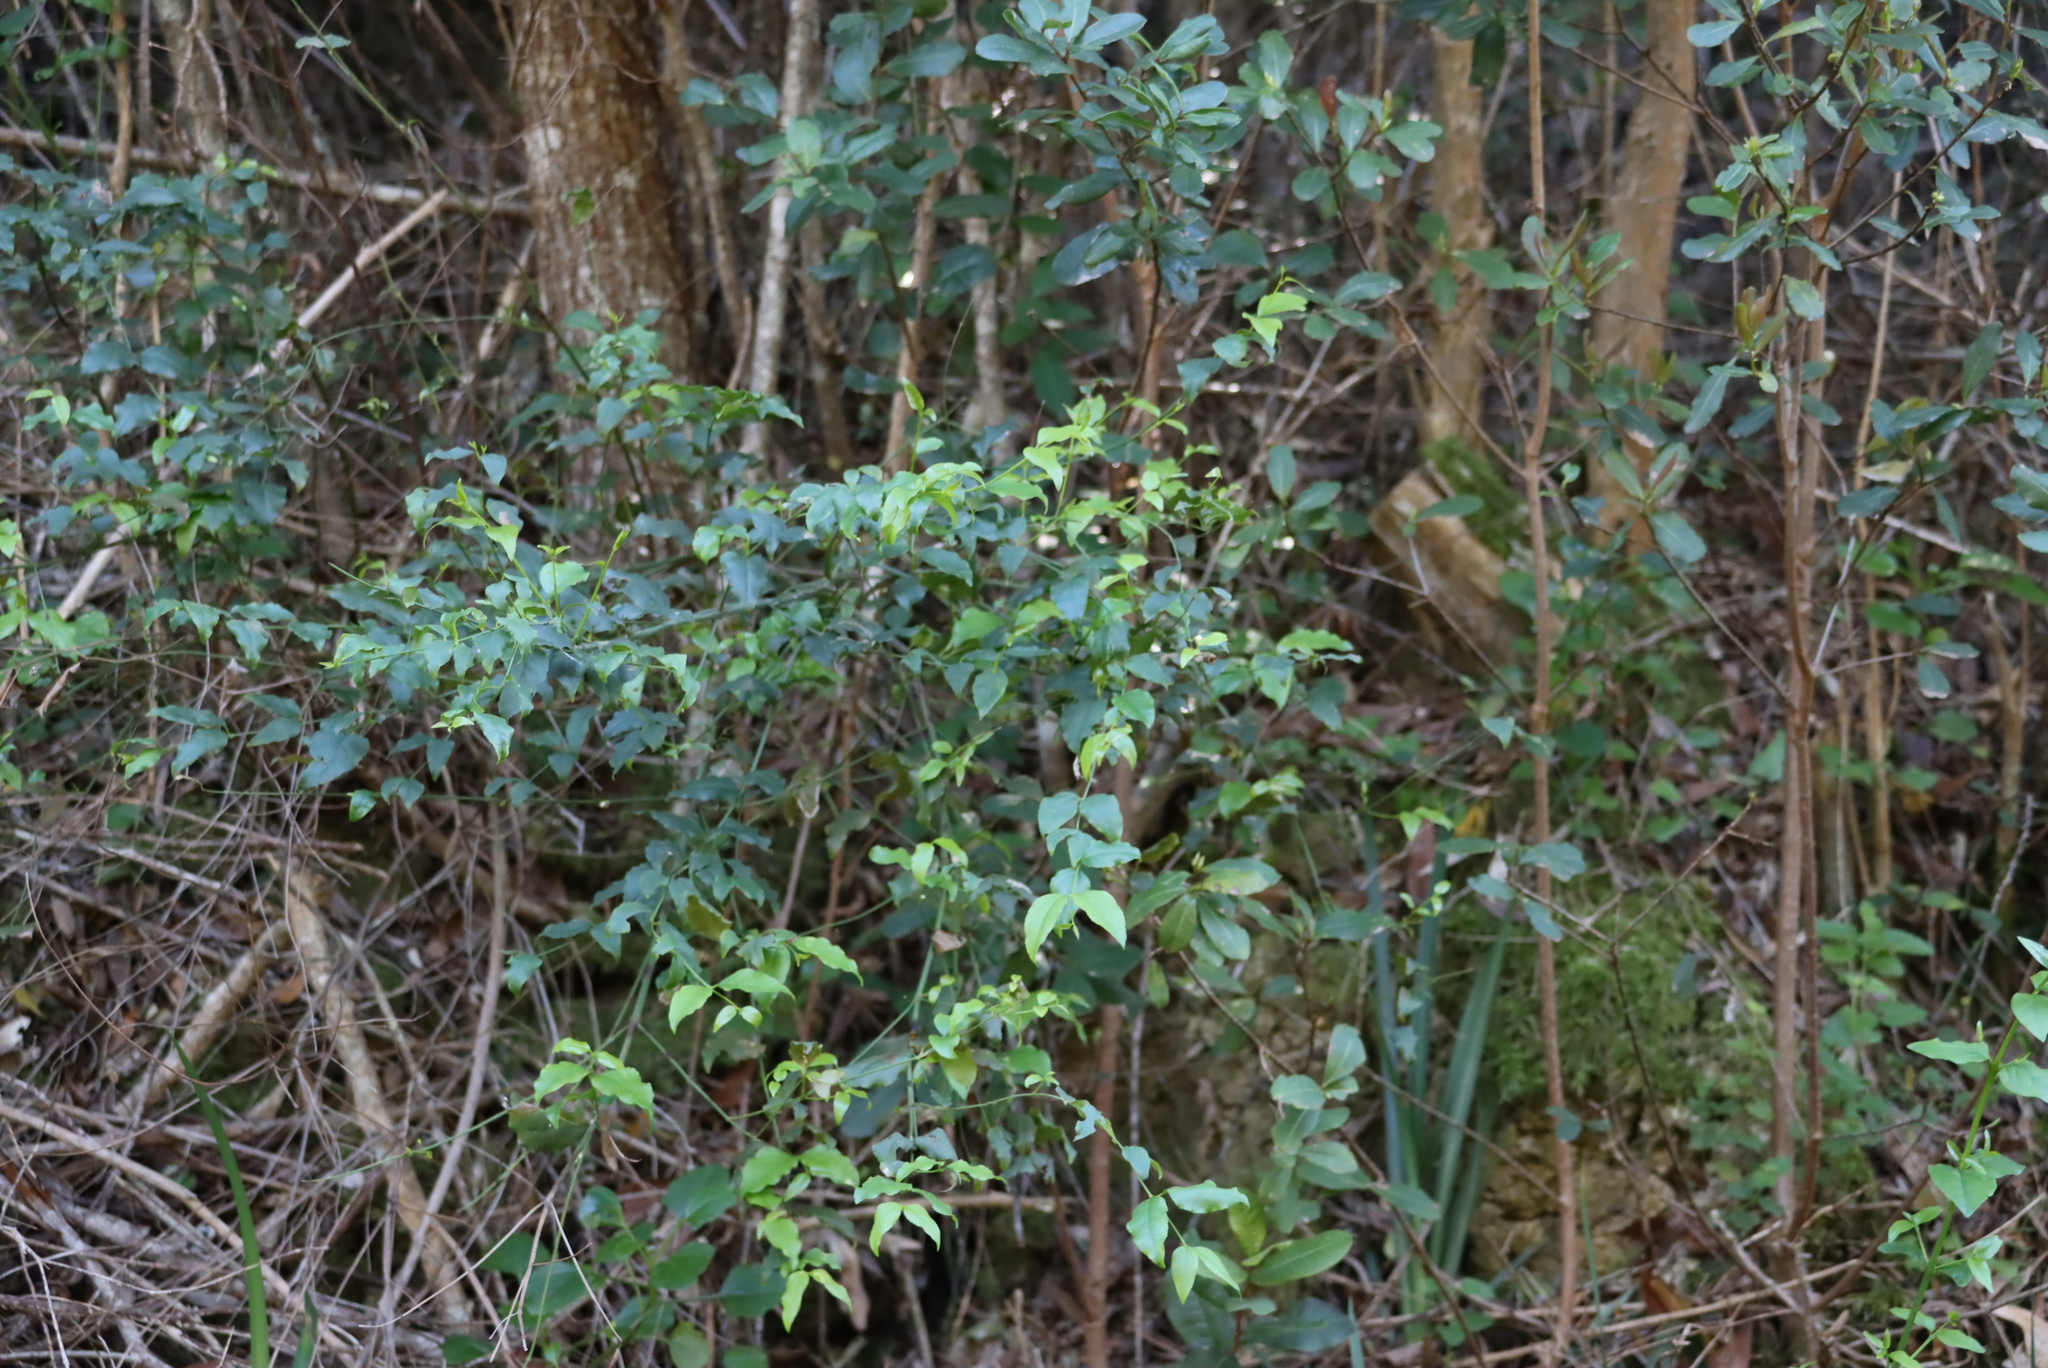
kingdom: Plantae
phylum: Tracheophyta
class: Magnoliopsida
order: Lamiales
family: Stilbaceae
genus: Halleria
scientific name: Halleria lucida
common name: Tree fuschia
